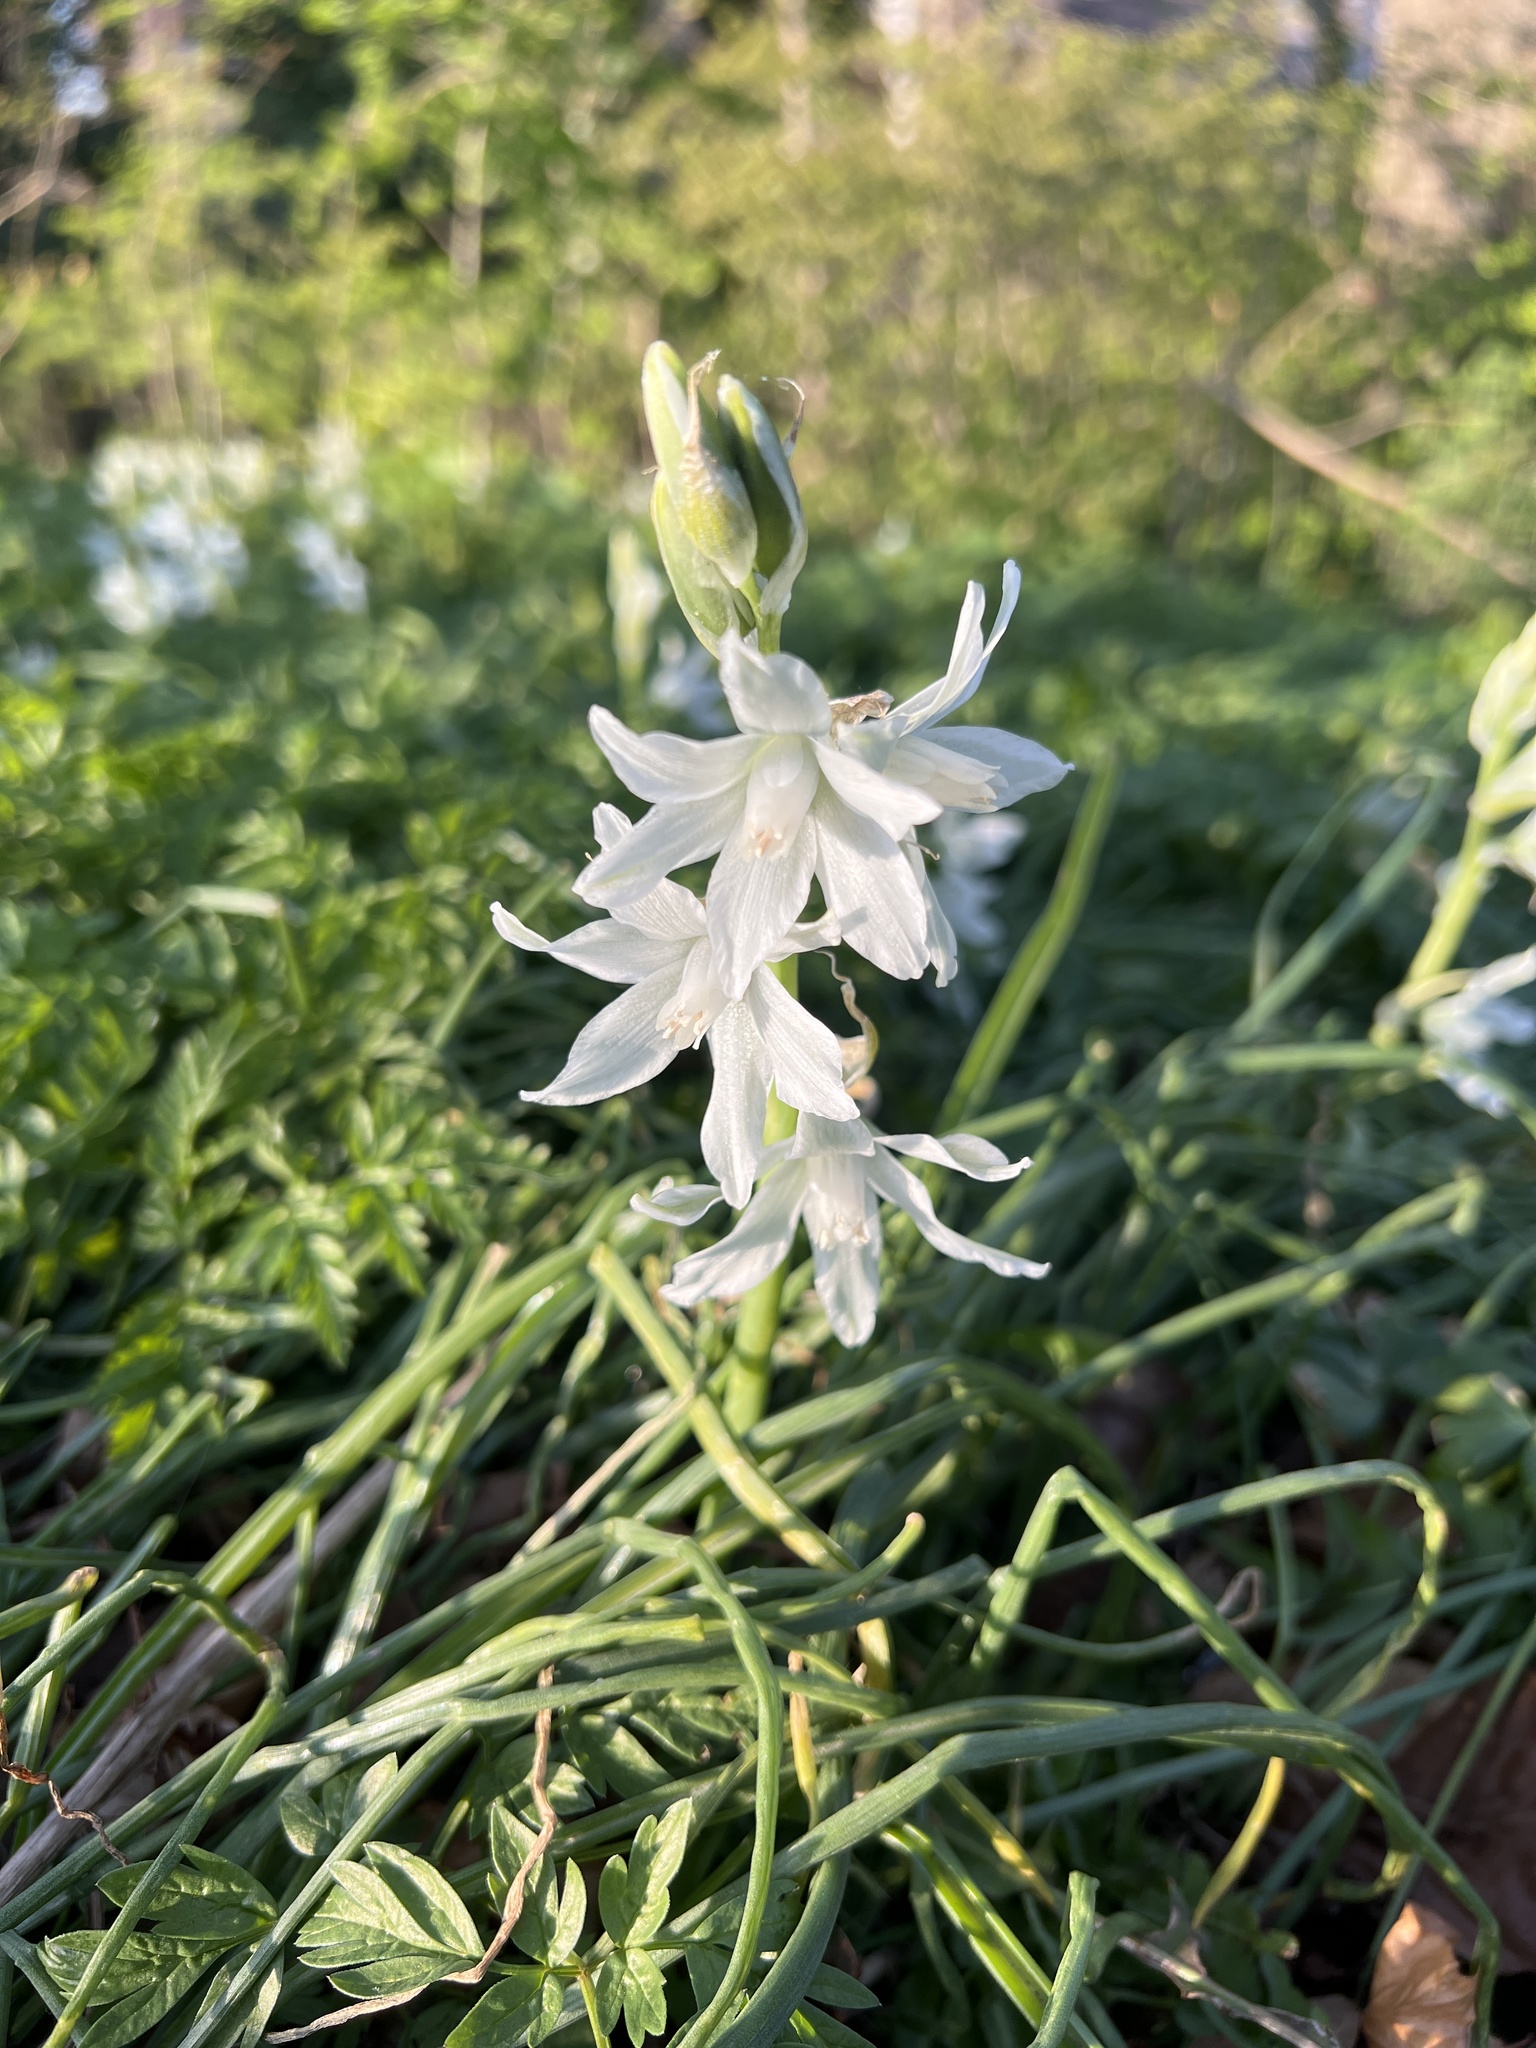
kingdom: Plantae
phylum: Tracheophyta
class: Liliopsida
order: Asparagales
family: Asparagaceae
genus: Ornithogalum
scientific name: Ornithogalum nutans
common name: Drooping star-of-bethlehem
